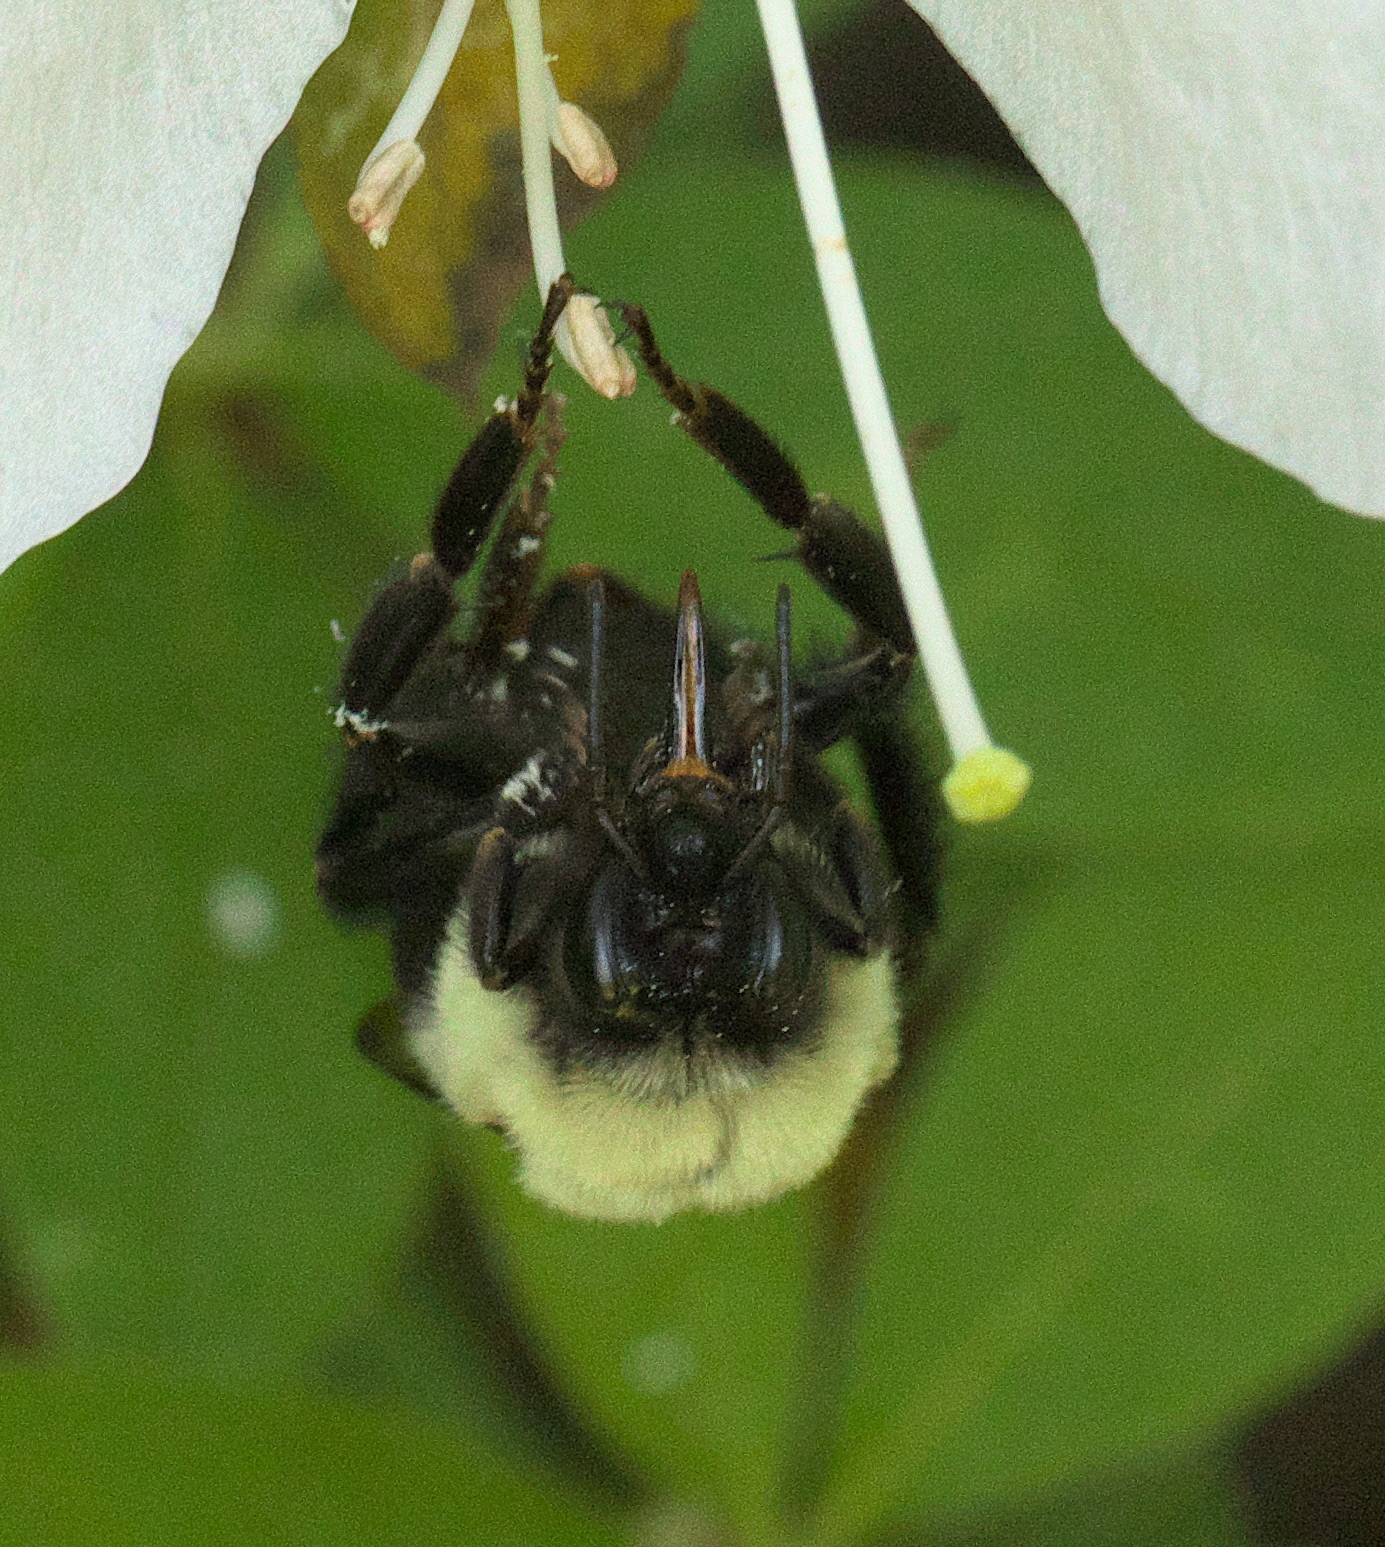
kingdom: Animalia
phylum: Arthropoda
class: Insecta
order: Hymenoptera
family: Apidae
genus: Bombus
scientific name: Bombus impatiens
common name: Common eastern bumble bee
